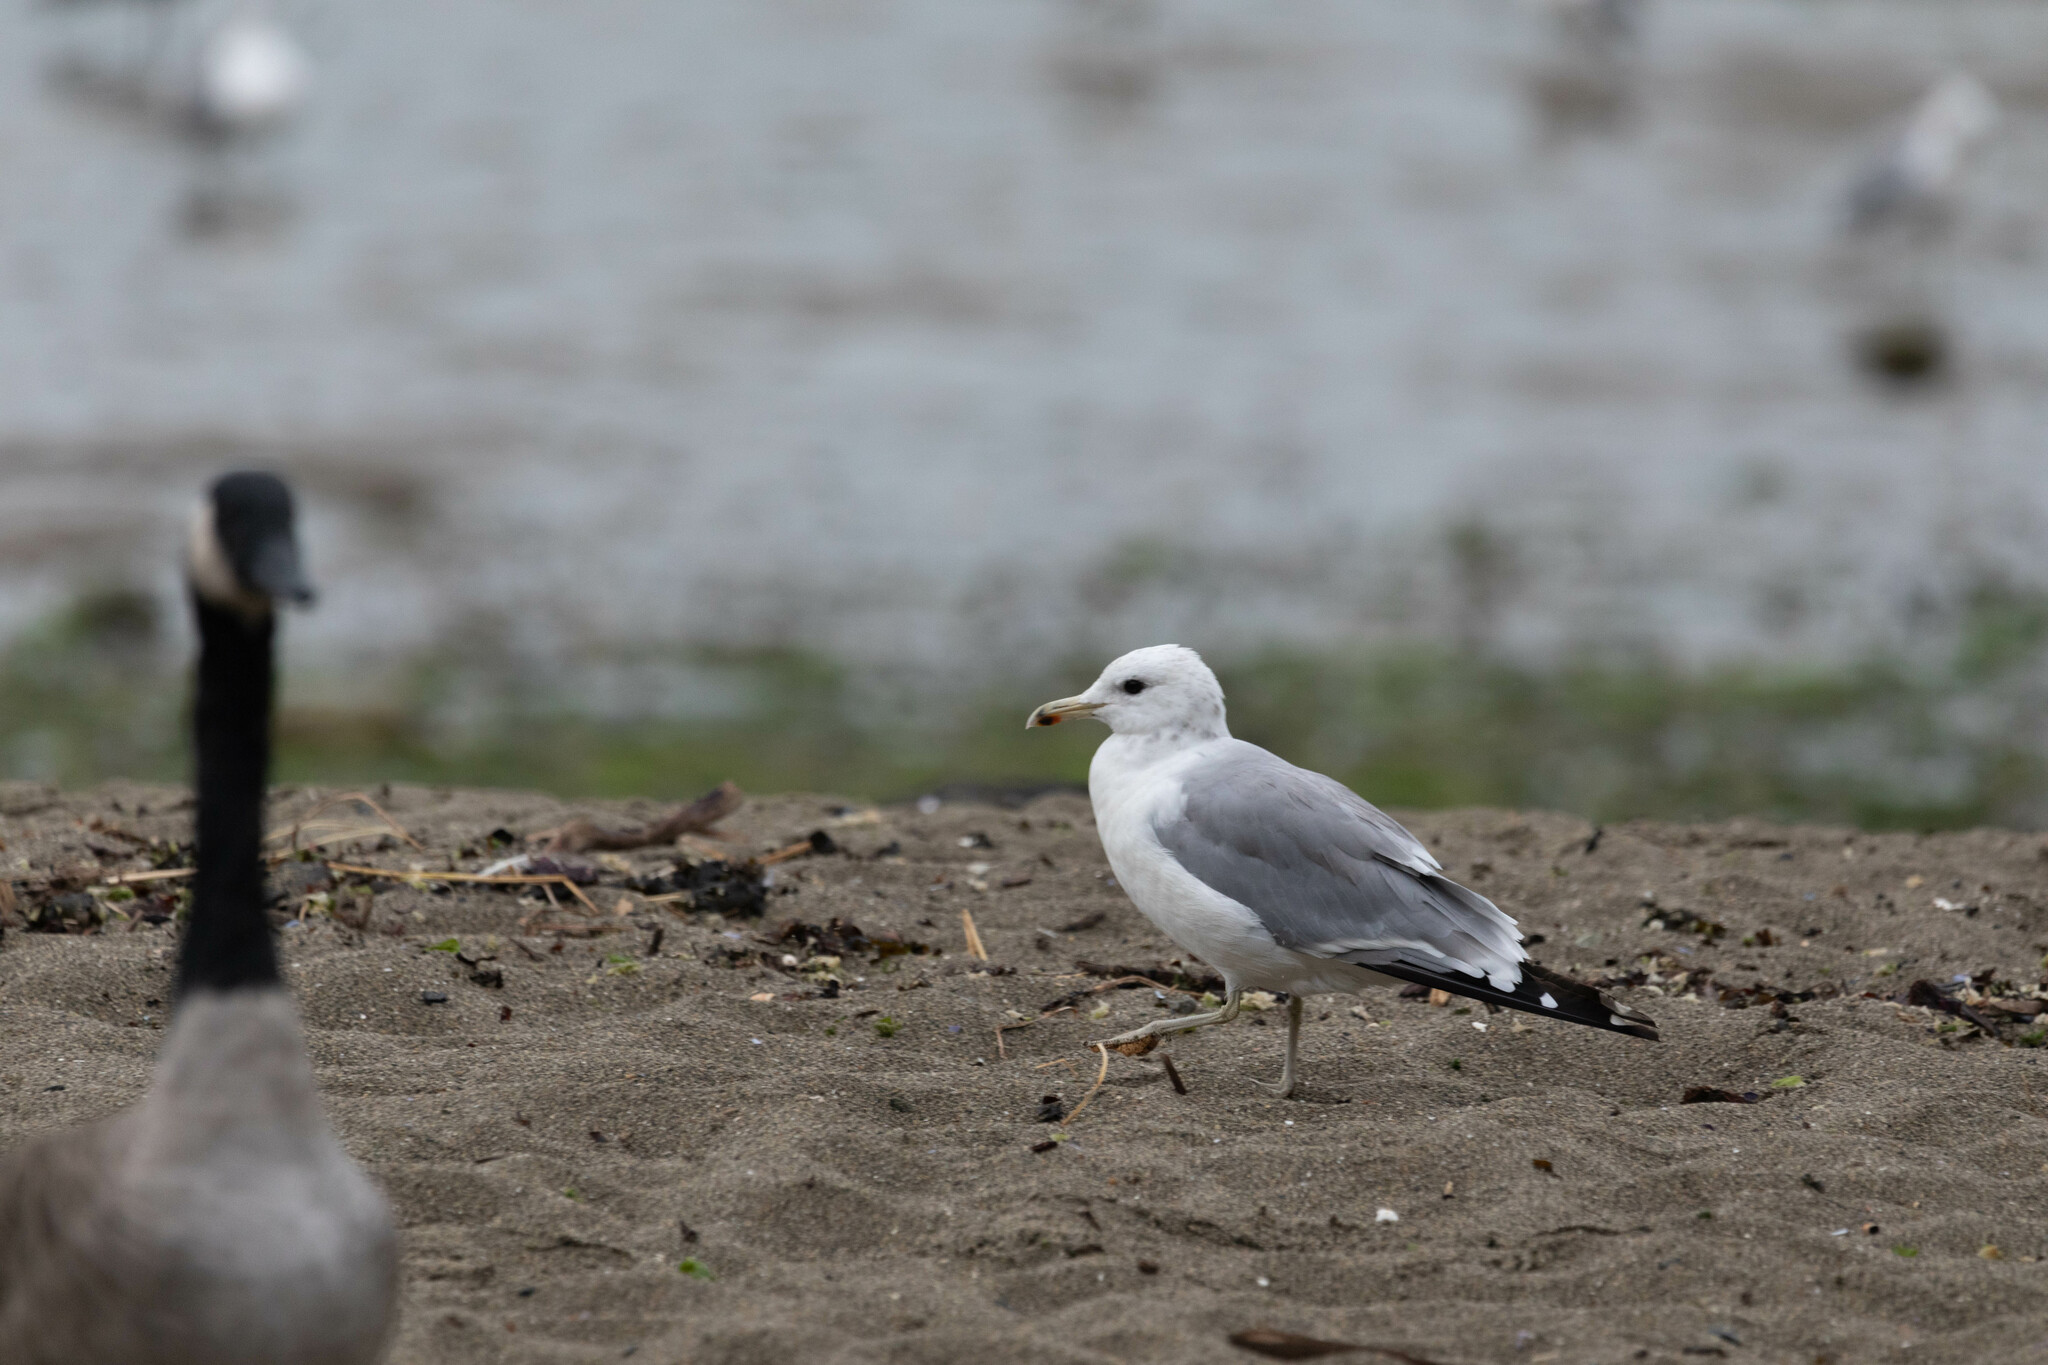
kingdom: Animalia
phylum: Chordata
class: Aves
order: Charadriiformes
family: Laridae
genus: Larus
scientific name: Larus californicus
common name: California gull
